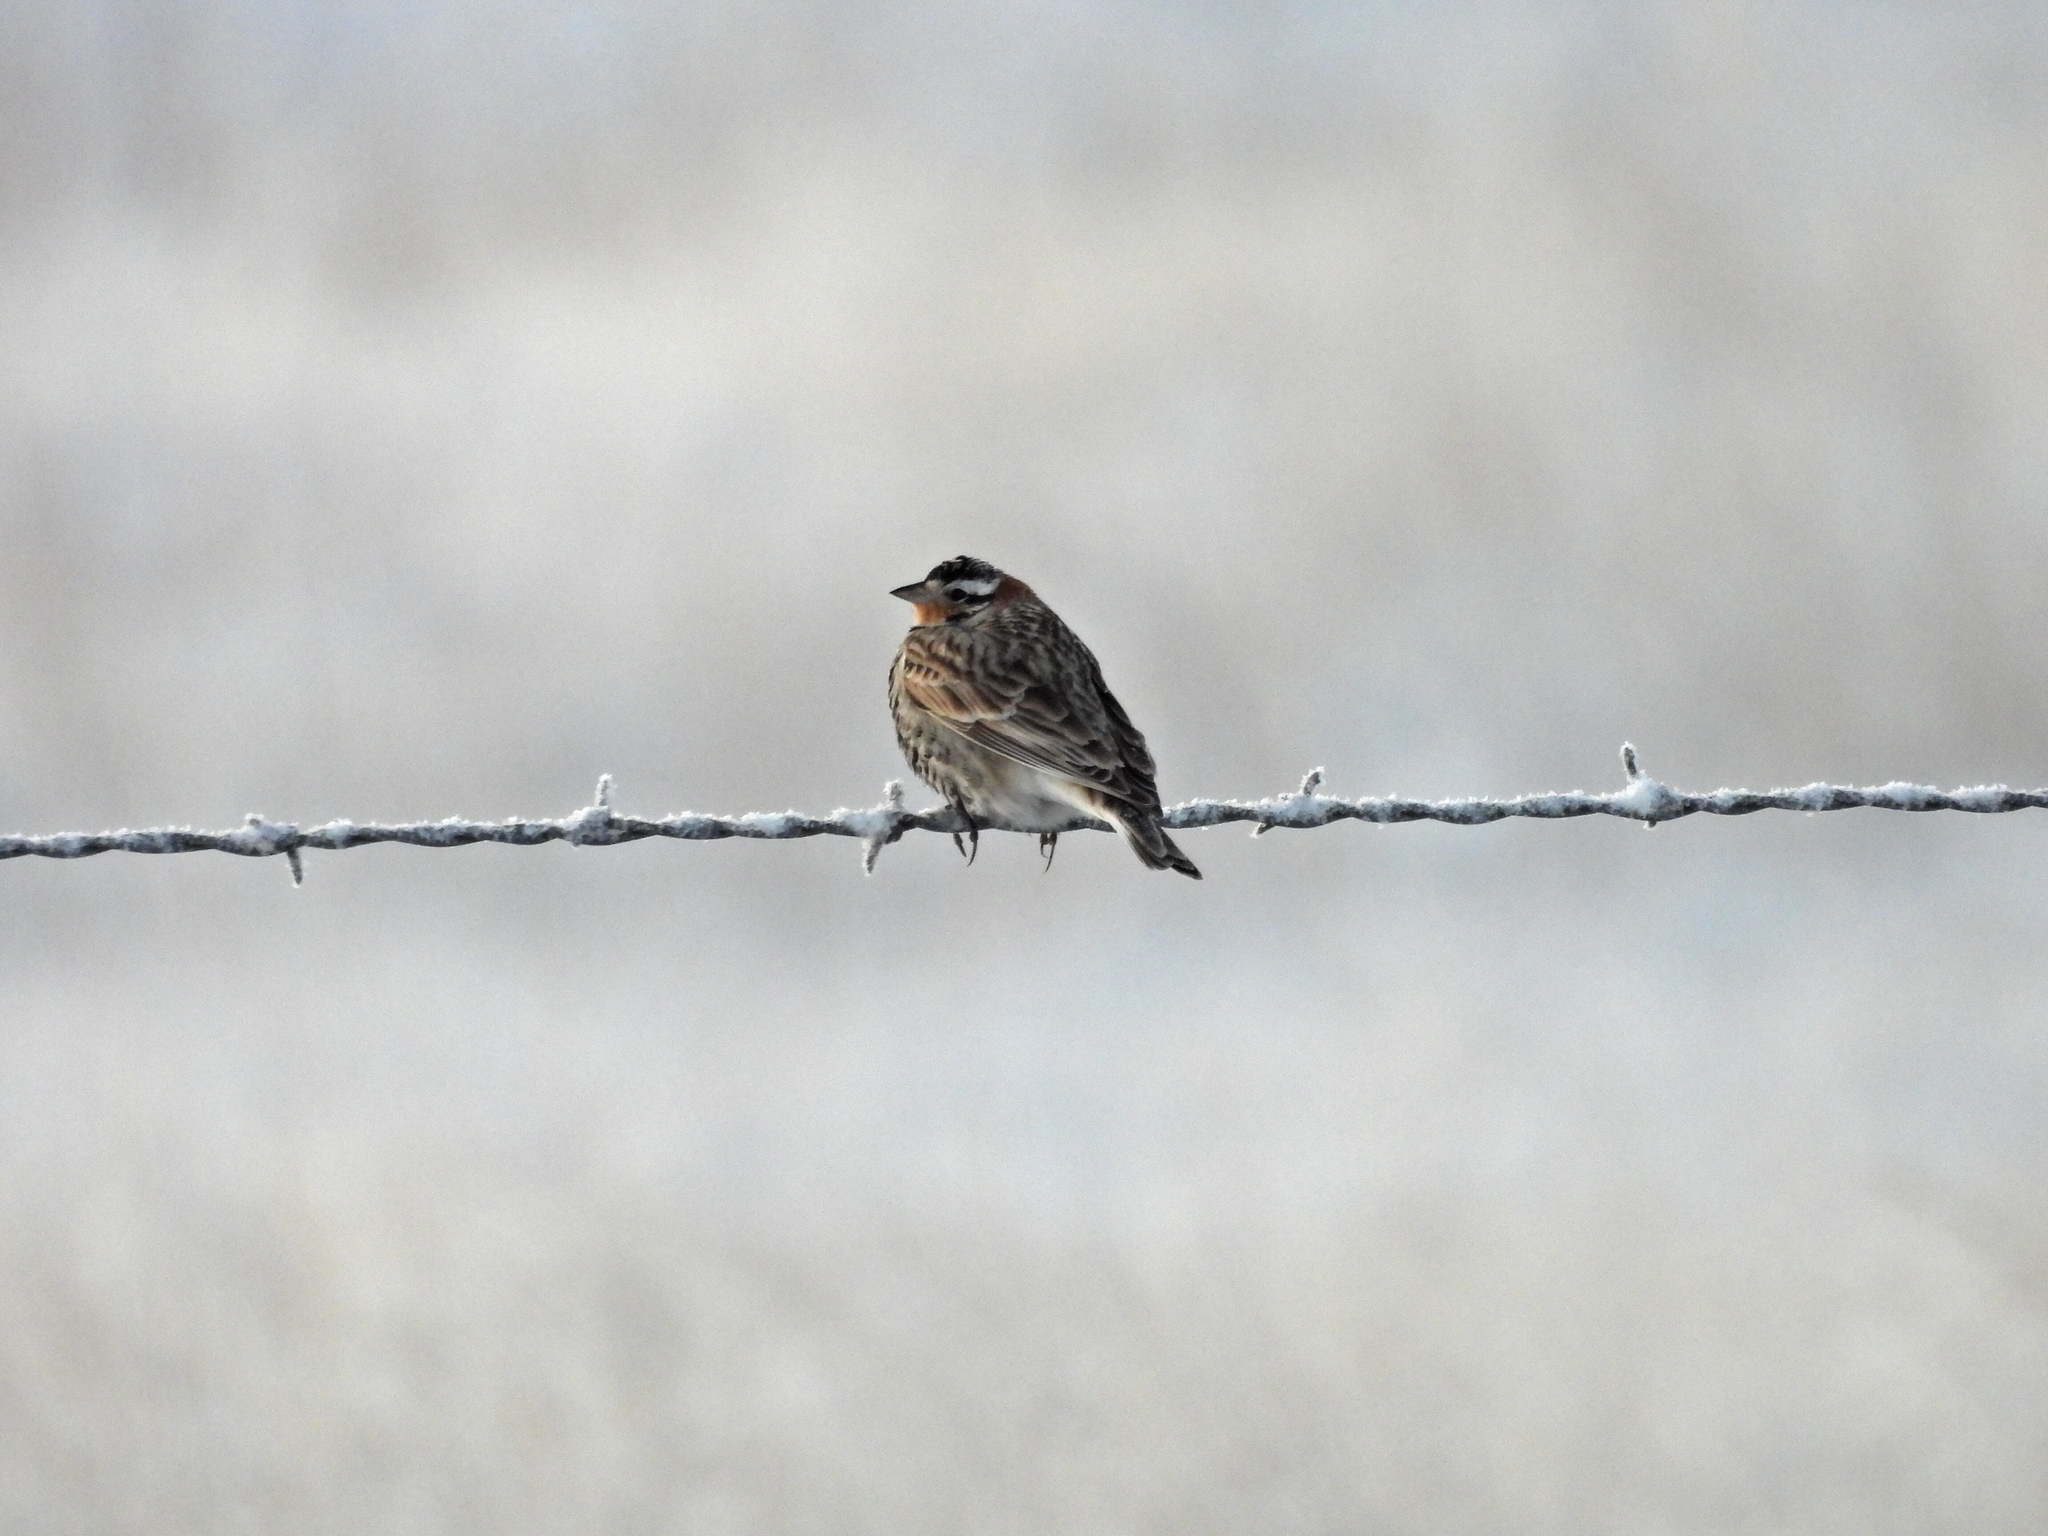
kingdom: Animalia
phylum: Chordata
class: Aves
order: Passeriformes
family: Calcariidae
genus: Calcarius
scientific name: Calcarius ornatus
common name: Chestnut-collared longspur
